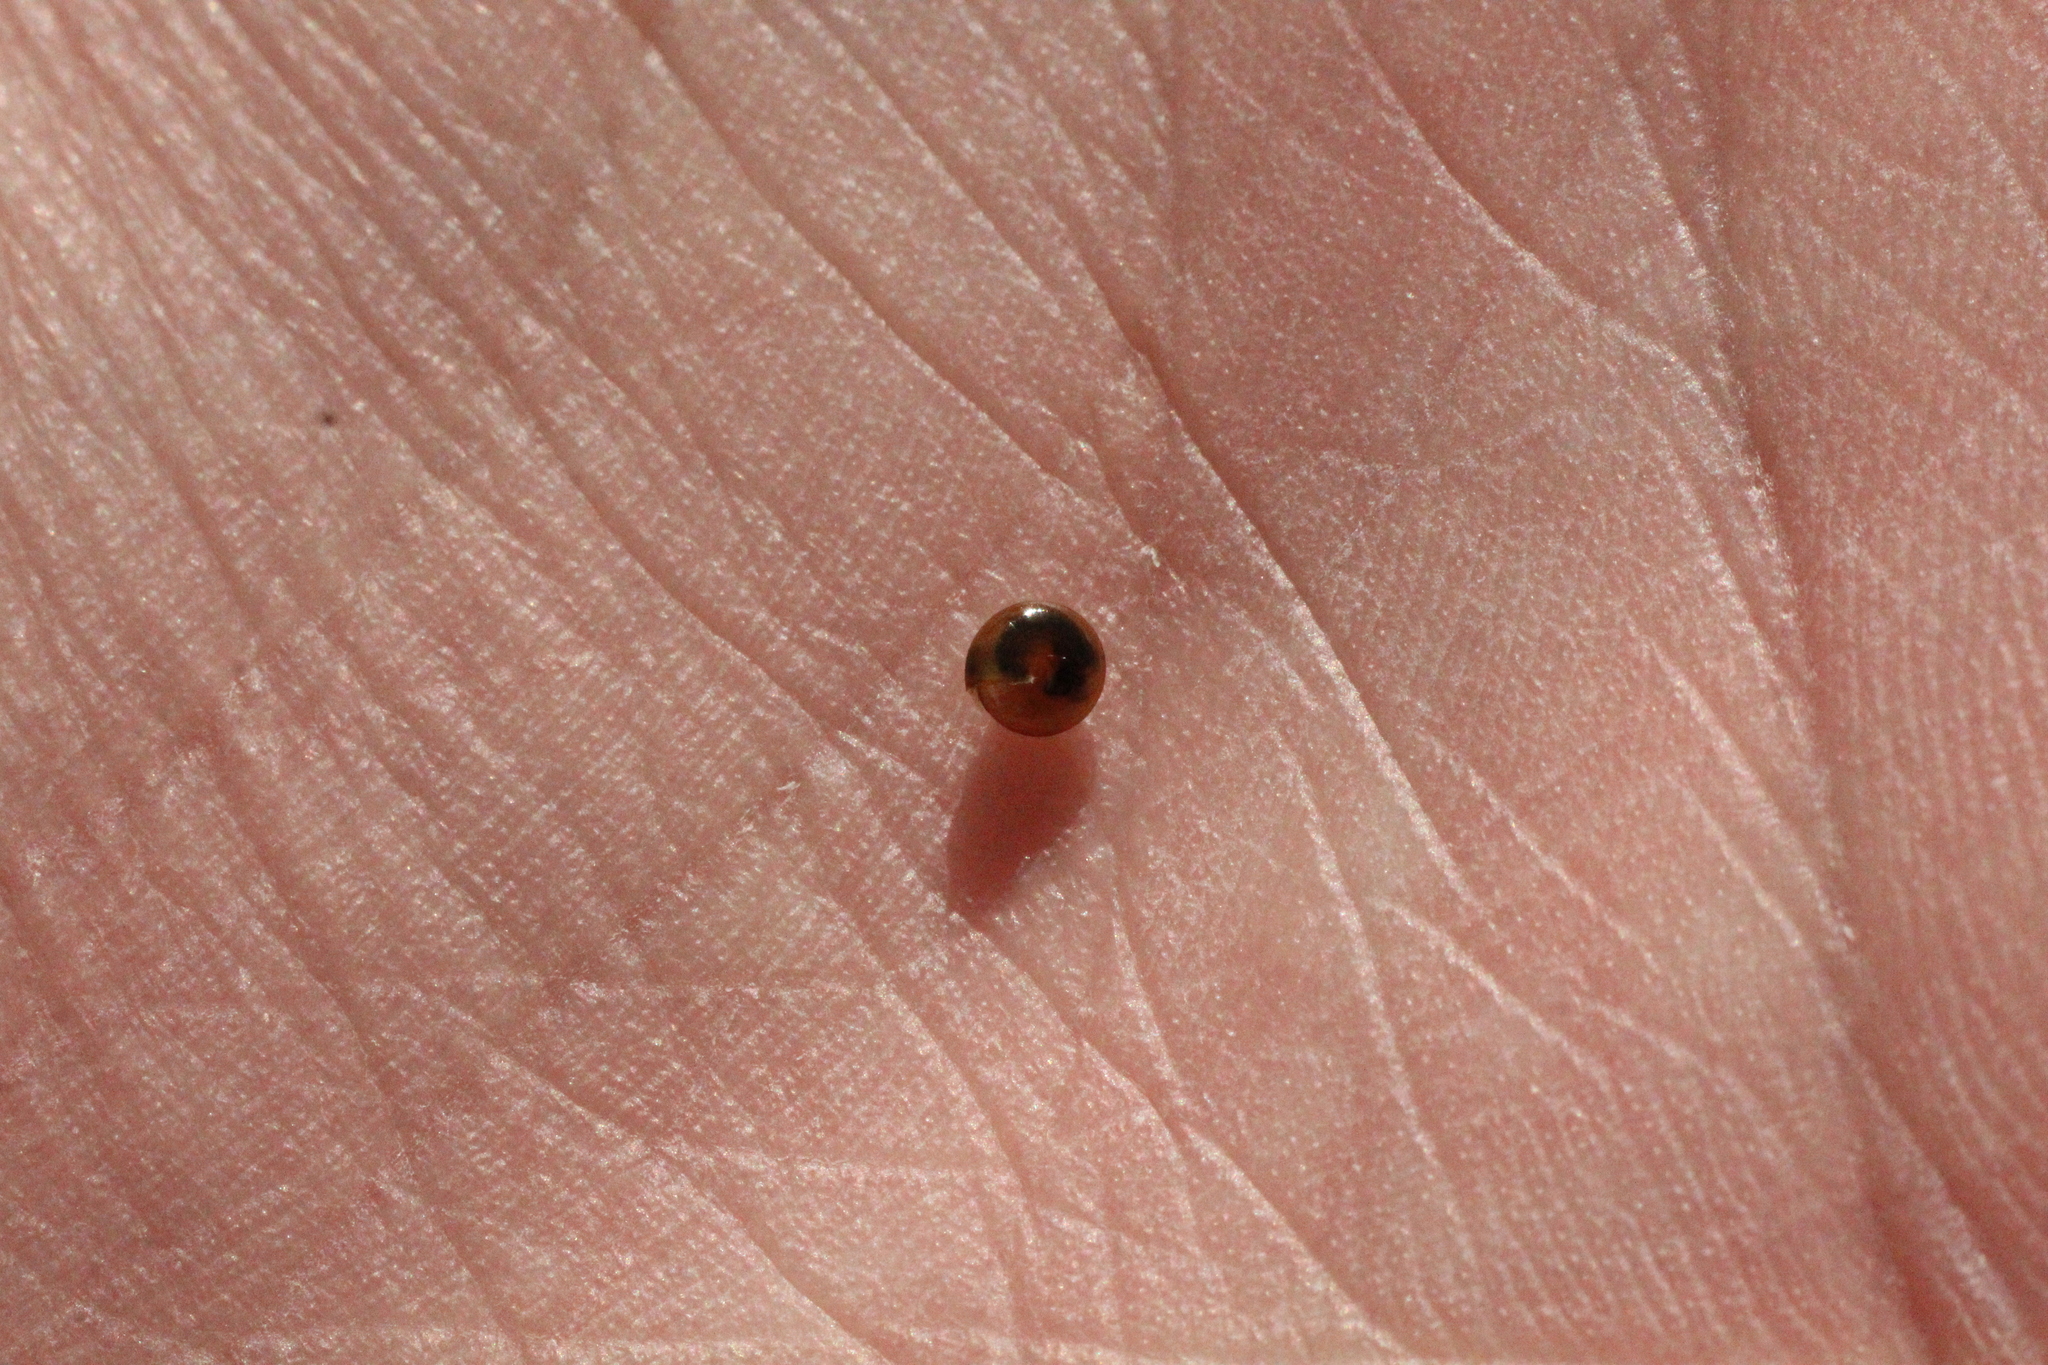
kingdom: Animalia
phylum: Mollusca
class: Gastropoda
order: Stylommatophora
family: Euconulidae
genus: Euconulus
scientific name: Euconulus fulvus
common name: Tawny glass snail
